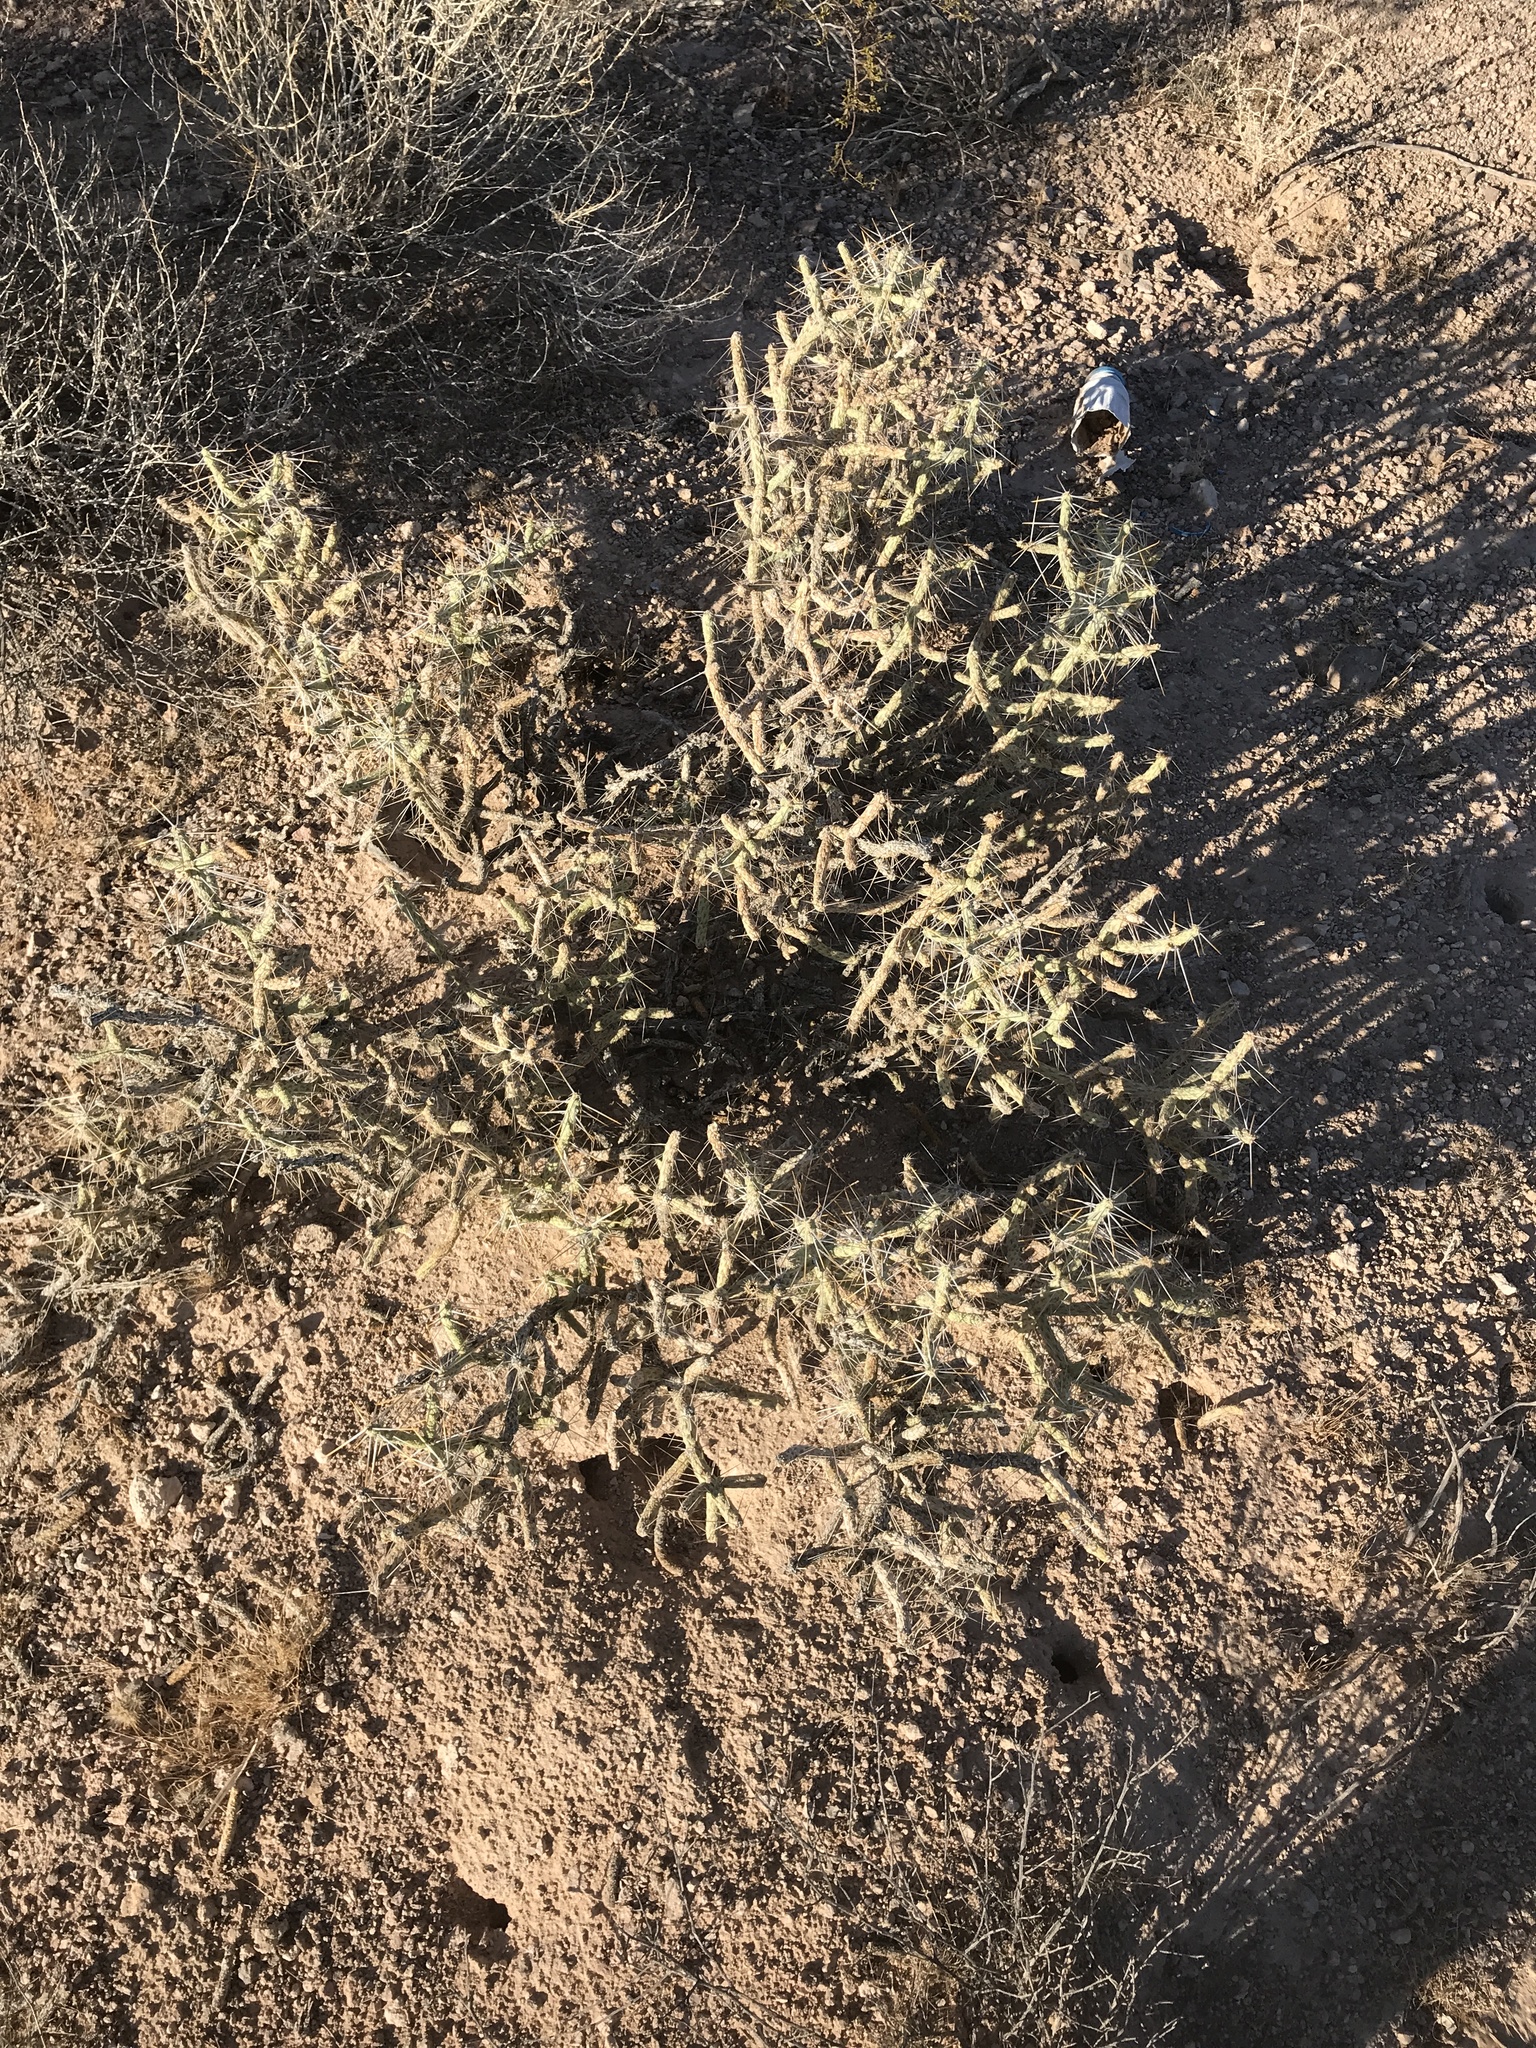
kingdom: Plantae
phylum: Tracheophyta
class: Magnoliopsida
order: Caryophyllales
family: Cactaceae
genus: Cylindropuntia
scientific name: Cylindropuntia ramosissima
